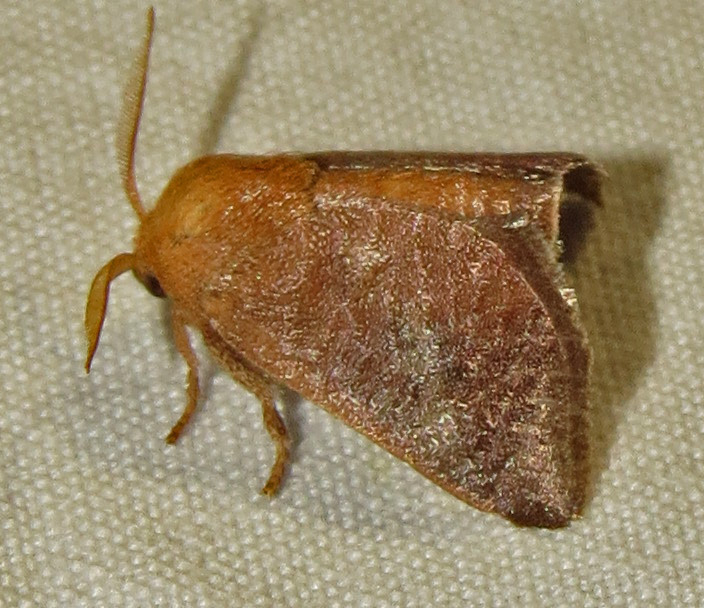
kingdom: Animalia
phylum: Arthropoda
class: Insecta
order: Lepidoptera
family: Limacodidae
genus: Isa
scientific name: Isa textula
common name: Crowned slug moth
